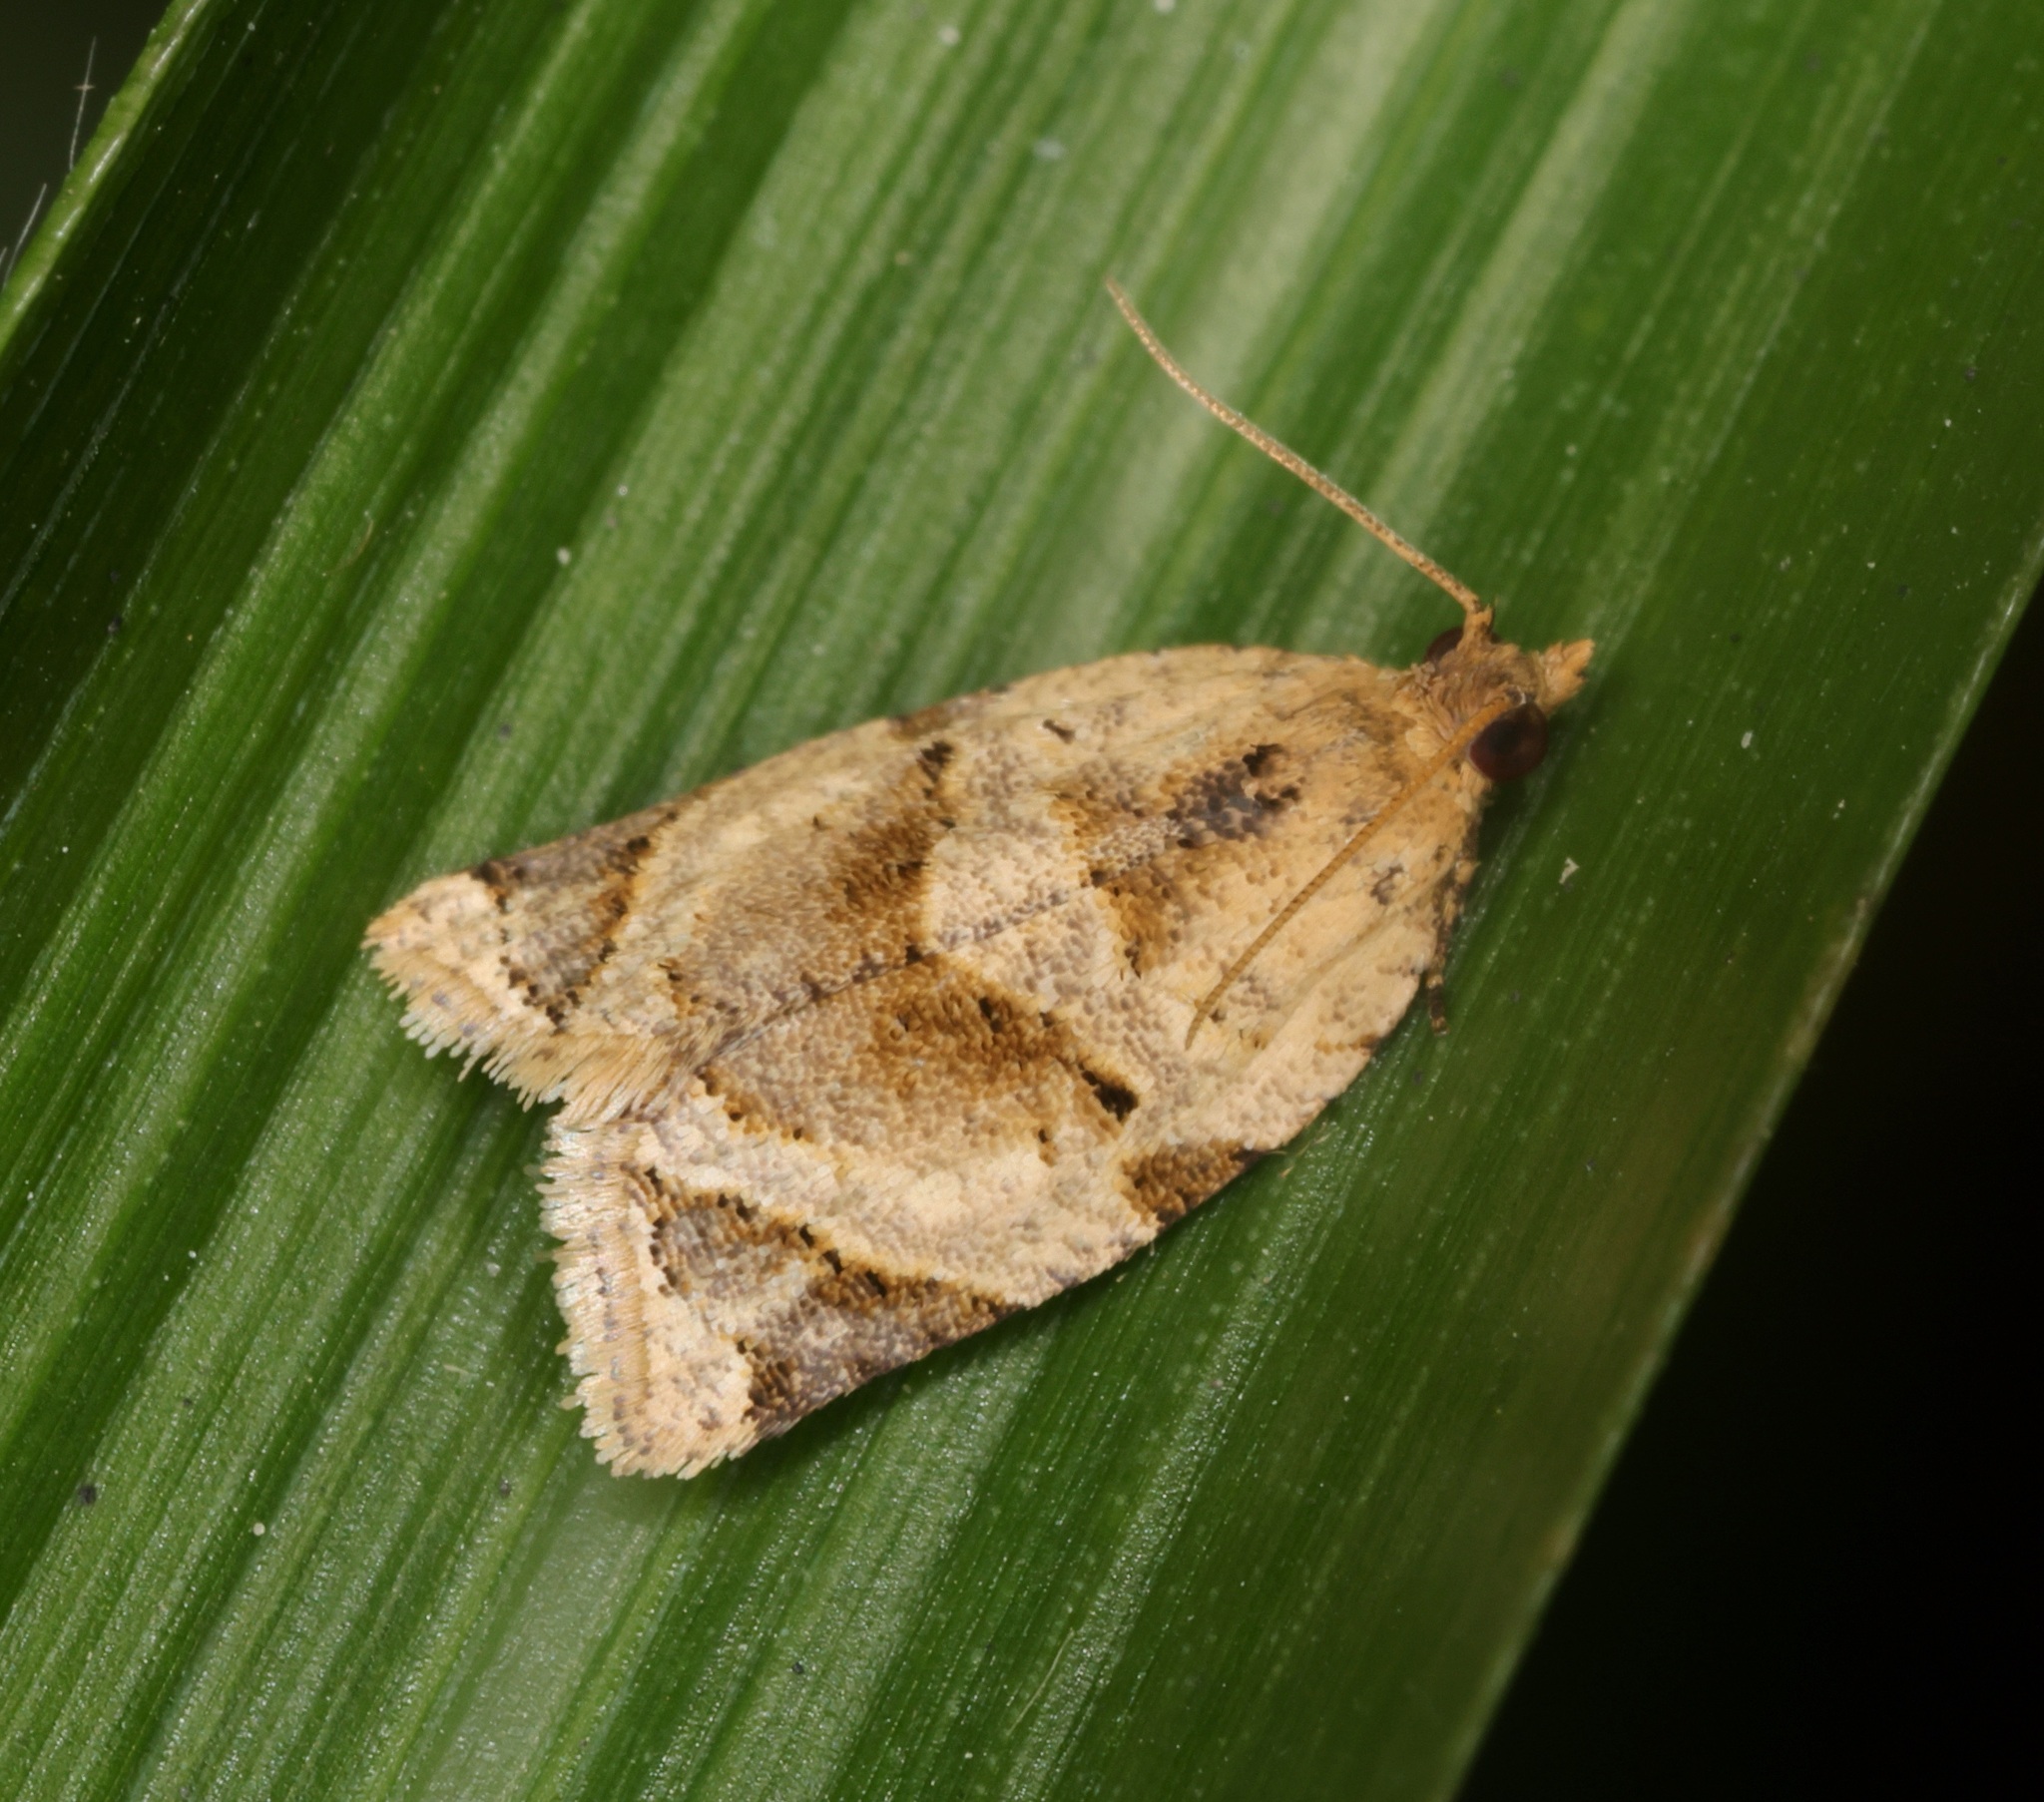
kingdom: Animalia
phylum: Arthropoda
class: Insecta
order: Lepidoptera
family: Tortricidae
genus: Neocalyptis
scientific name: Neocalyptis affinisana
